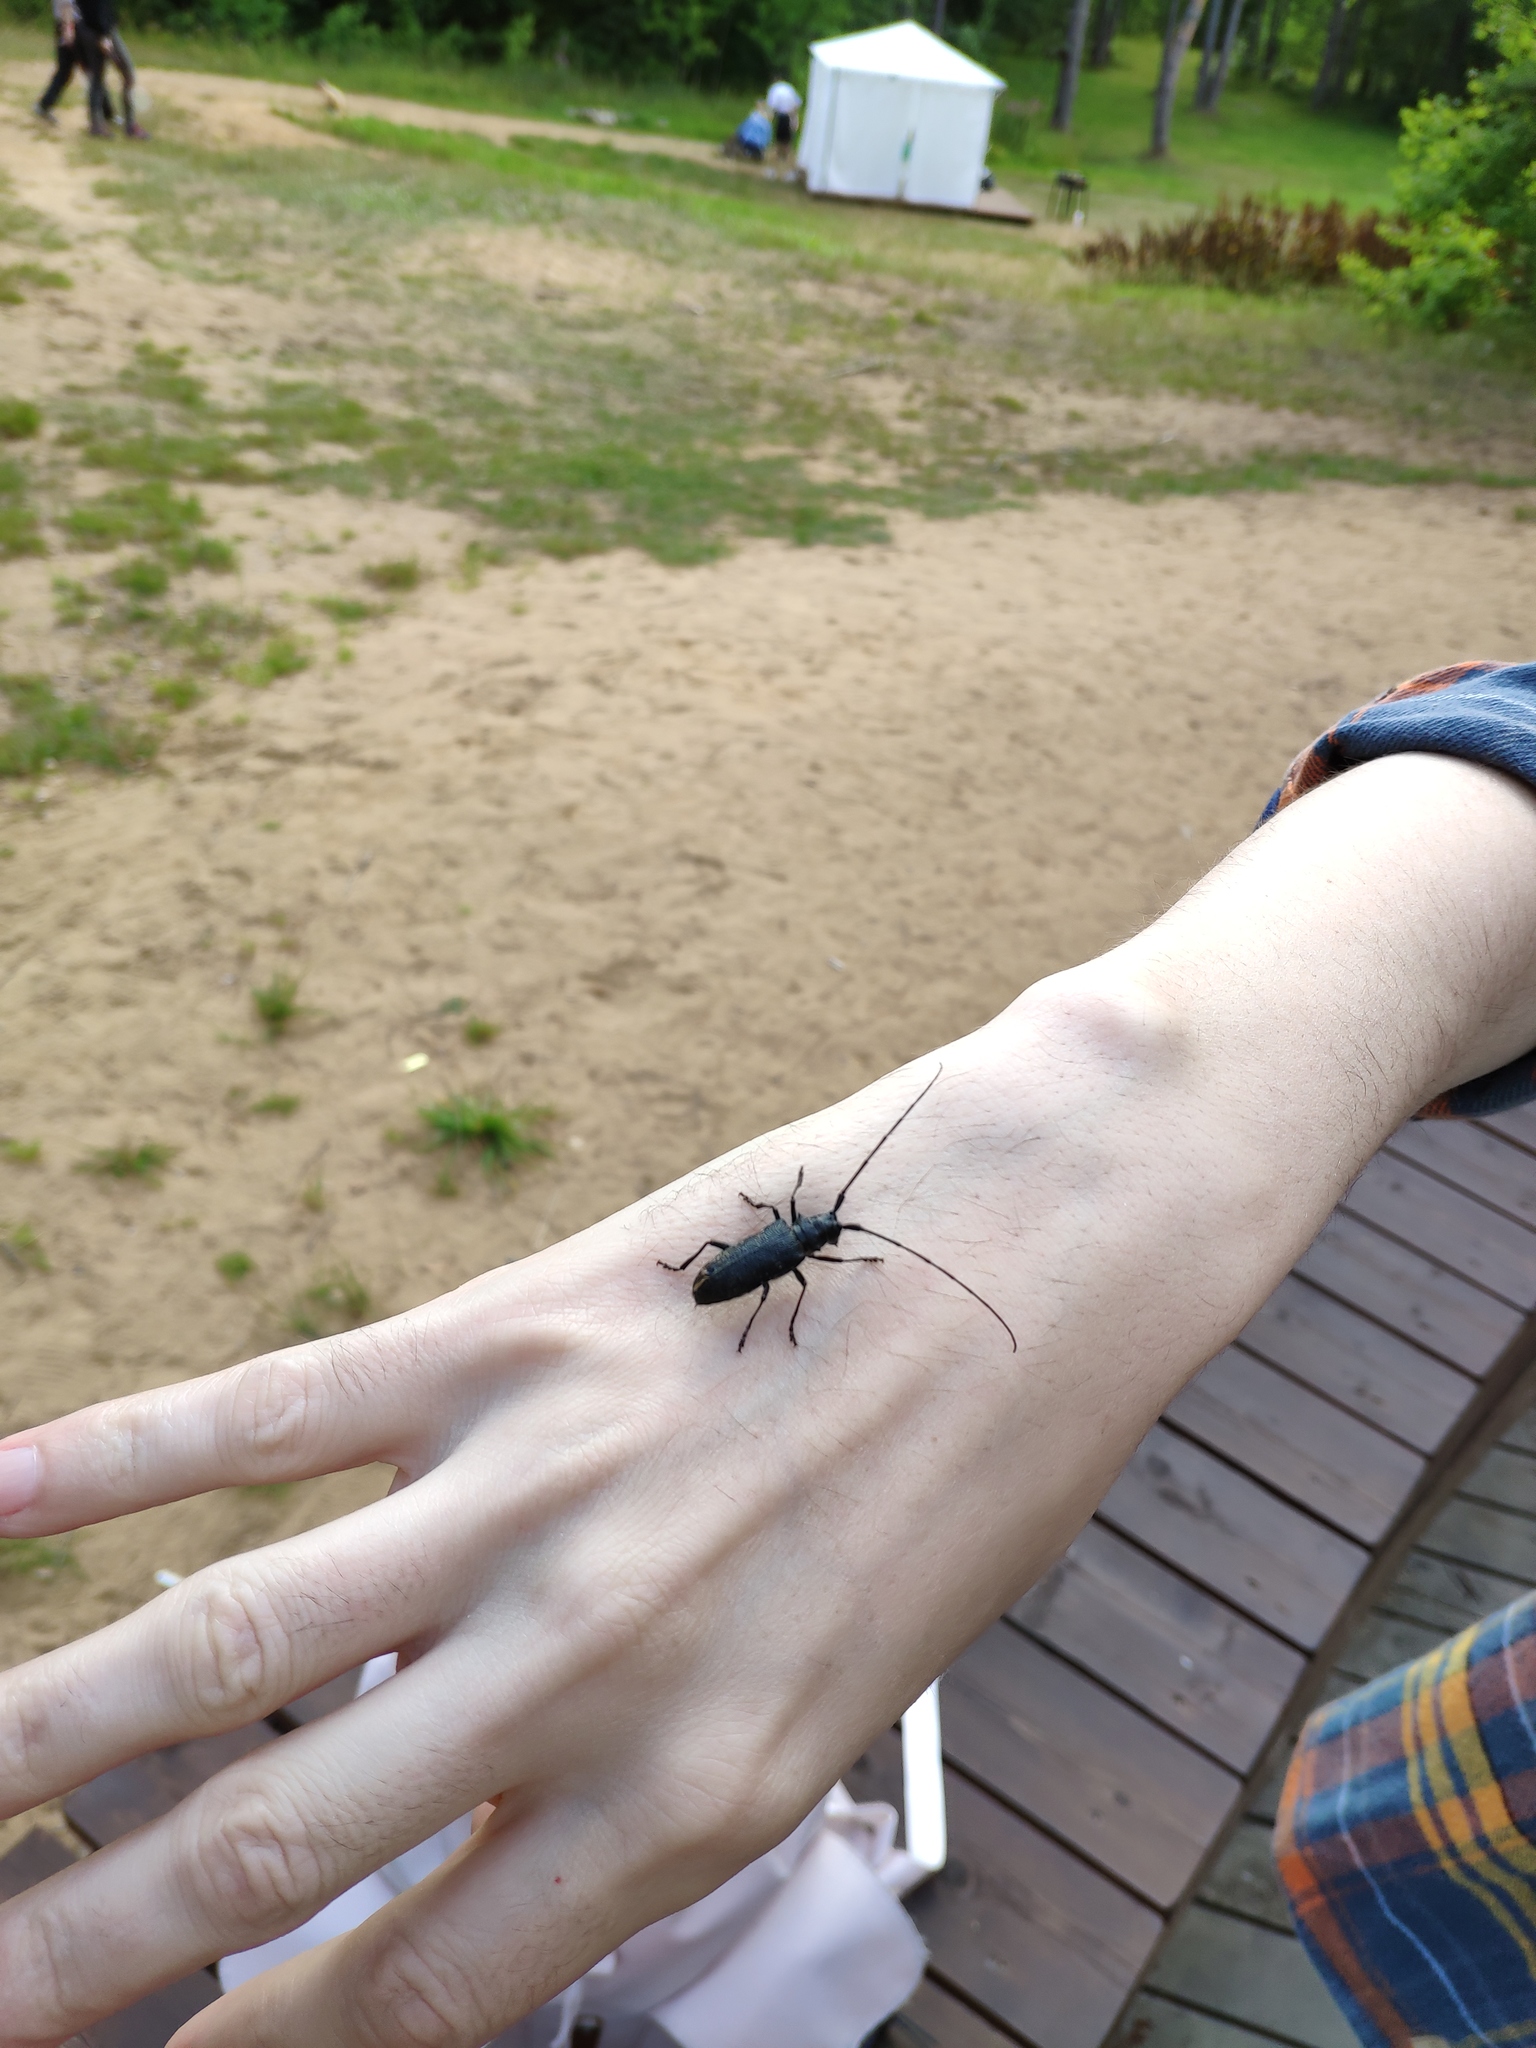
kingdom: Animalia
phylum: Arthropoda
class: Insecta
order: Coleoptera
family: Cerambycidae
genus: Monochamus
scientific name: Monochamus sutor
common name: Pine sawyer
